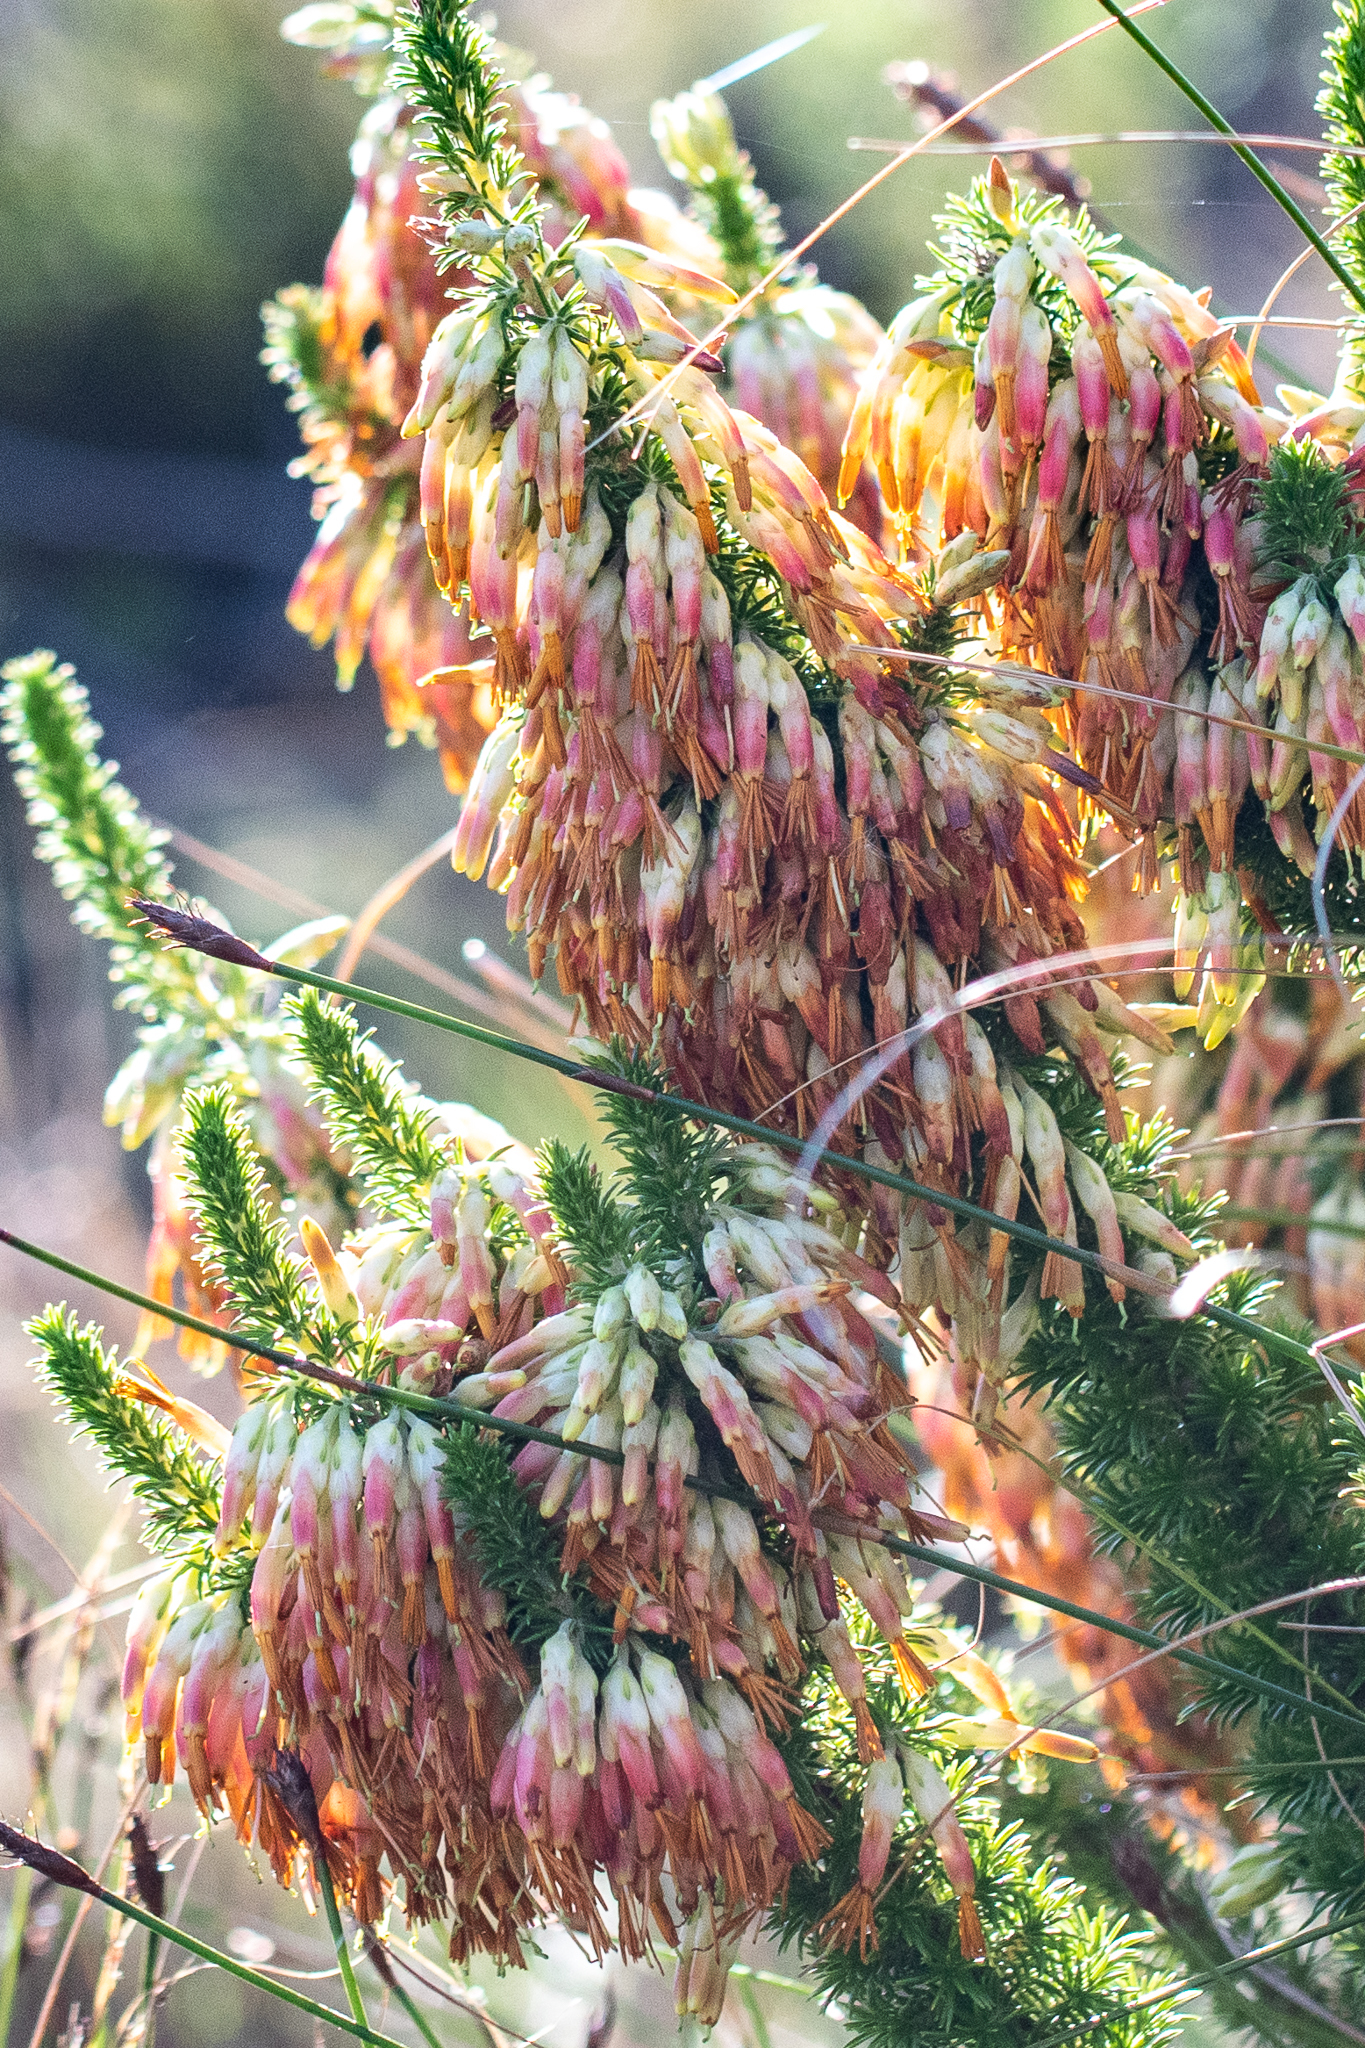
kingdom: Plantae
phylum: Tracheophyta
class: Magnoliopsida
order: Ericales
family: Ericaceae
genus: Erica
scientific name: Erica coccinea
